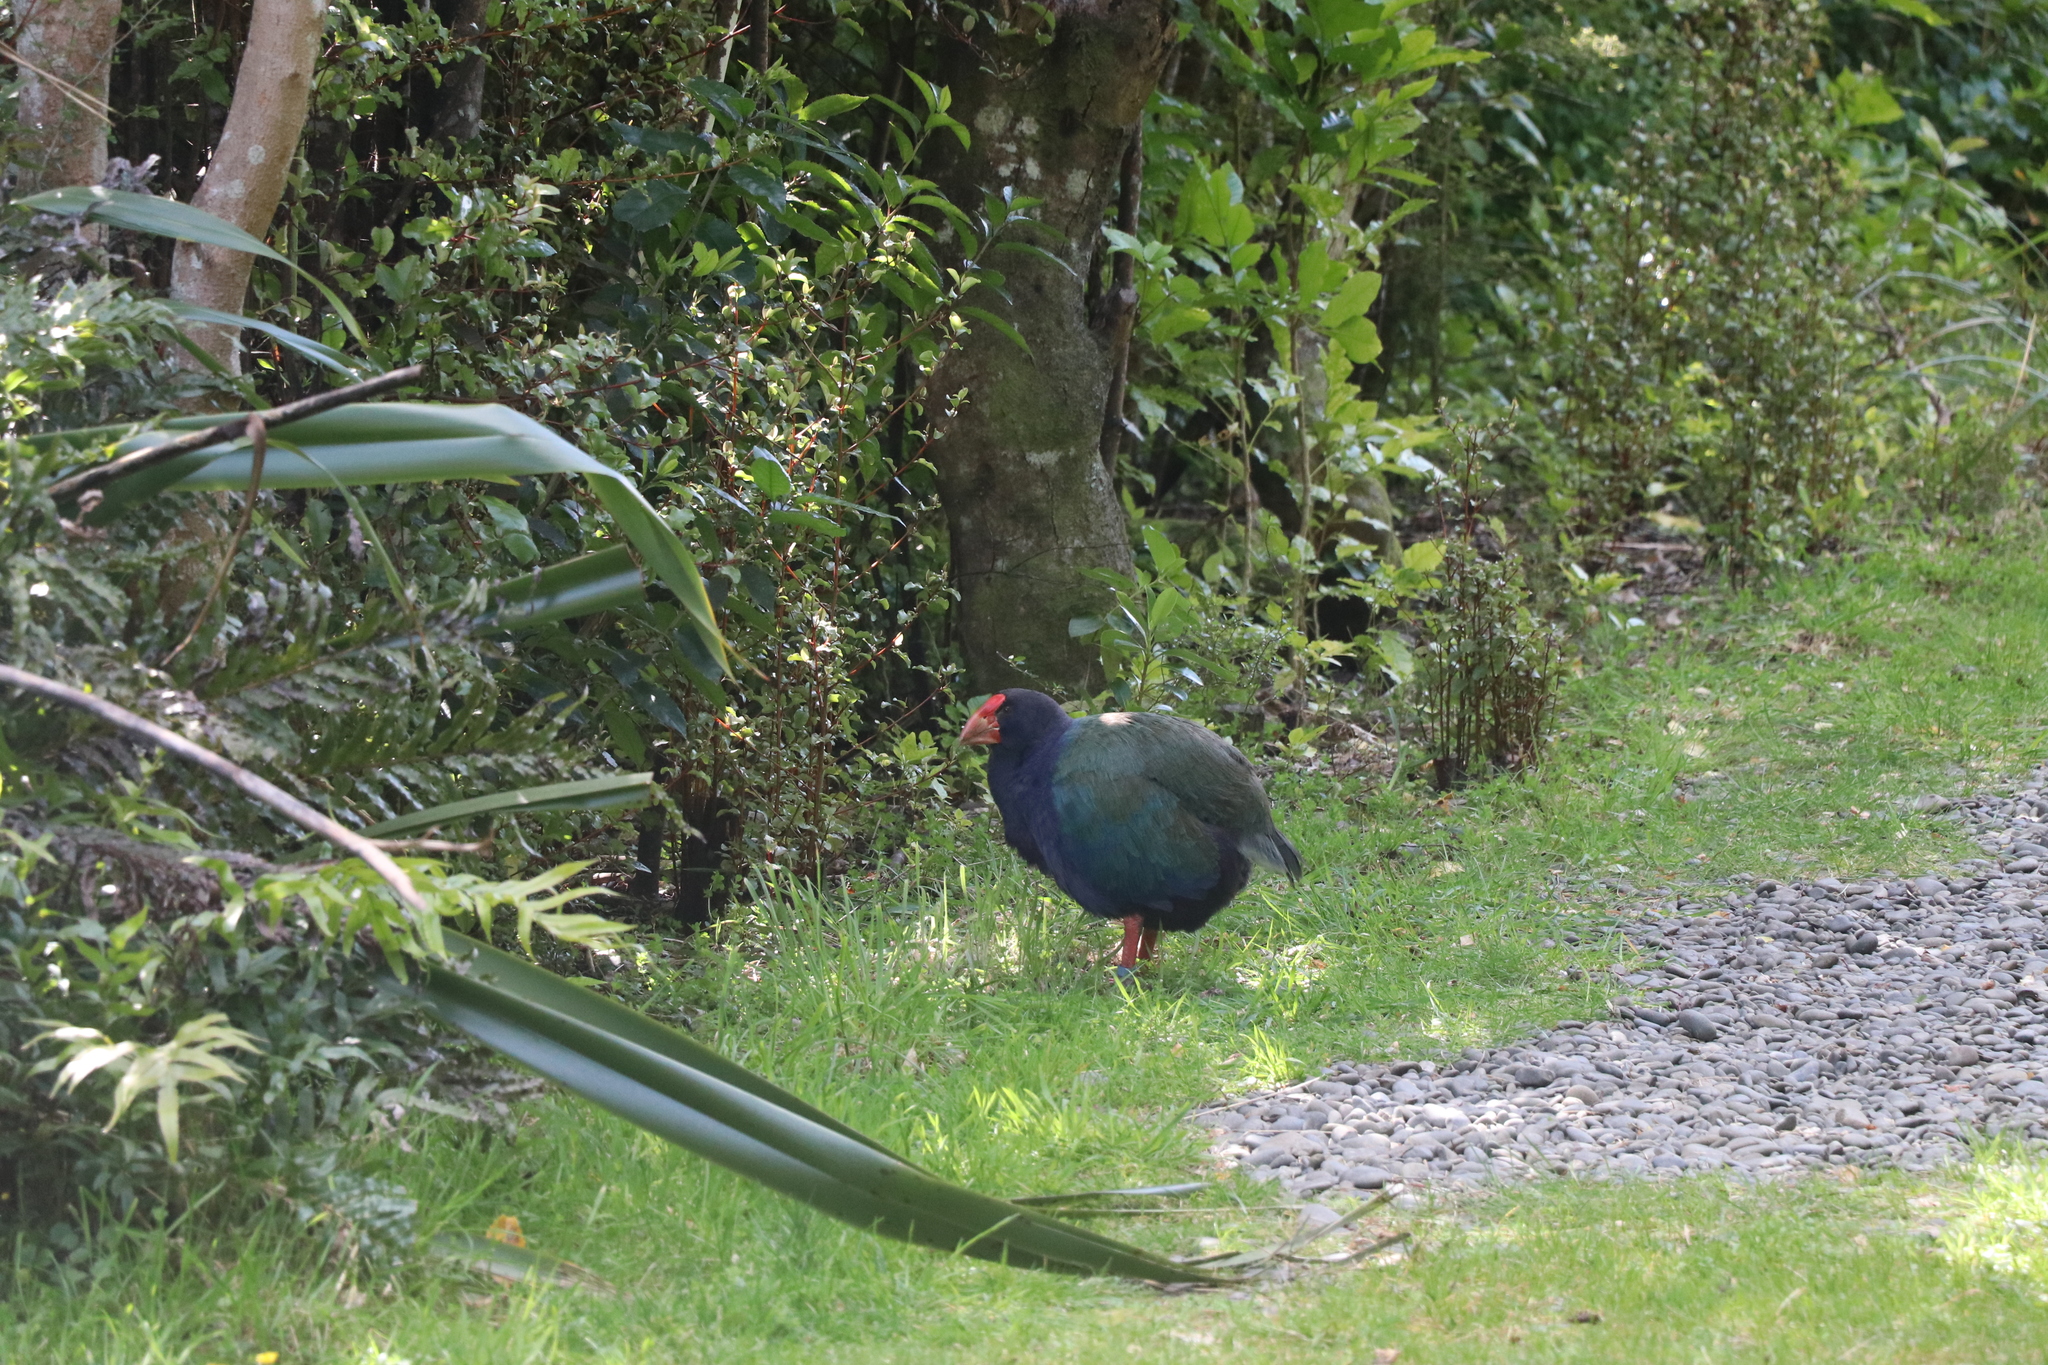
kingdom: Animalia
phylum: Chordata
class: Aves
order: Gruiformes
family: Rallidae
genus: Porphyrio
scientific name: Porphyrio hochstetteri
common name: South island takahe
